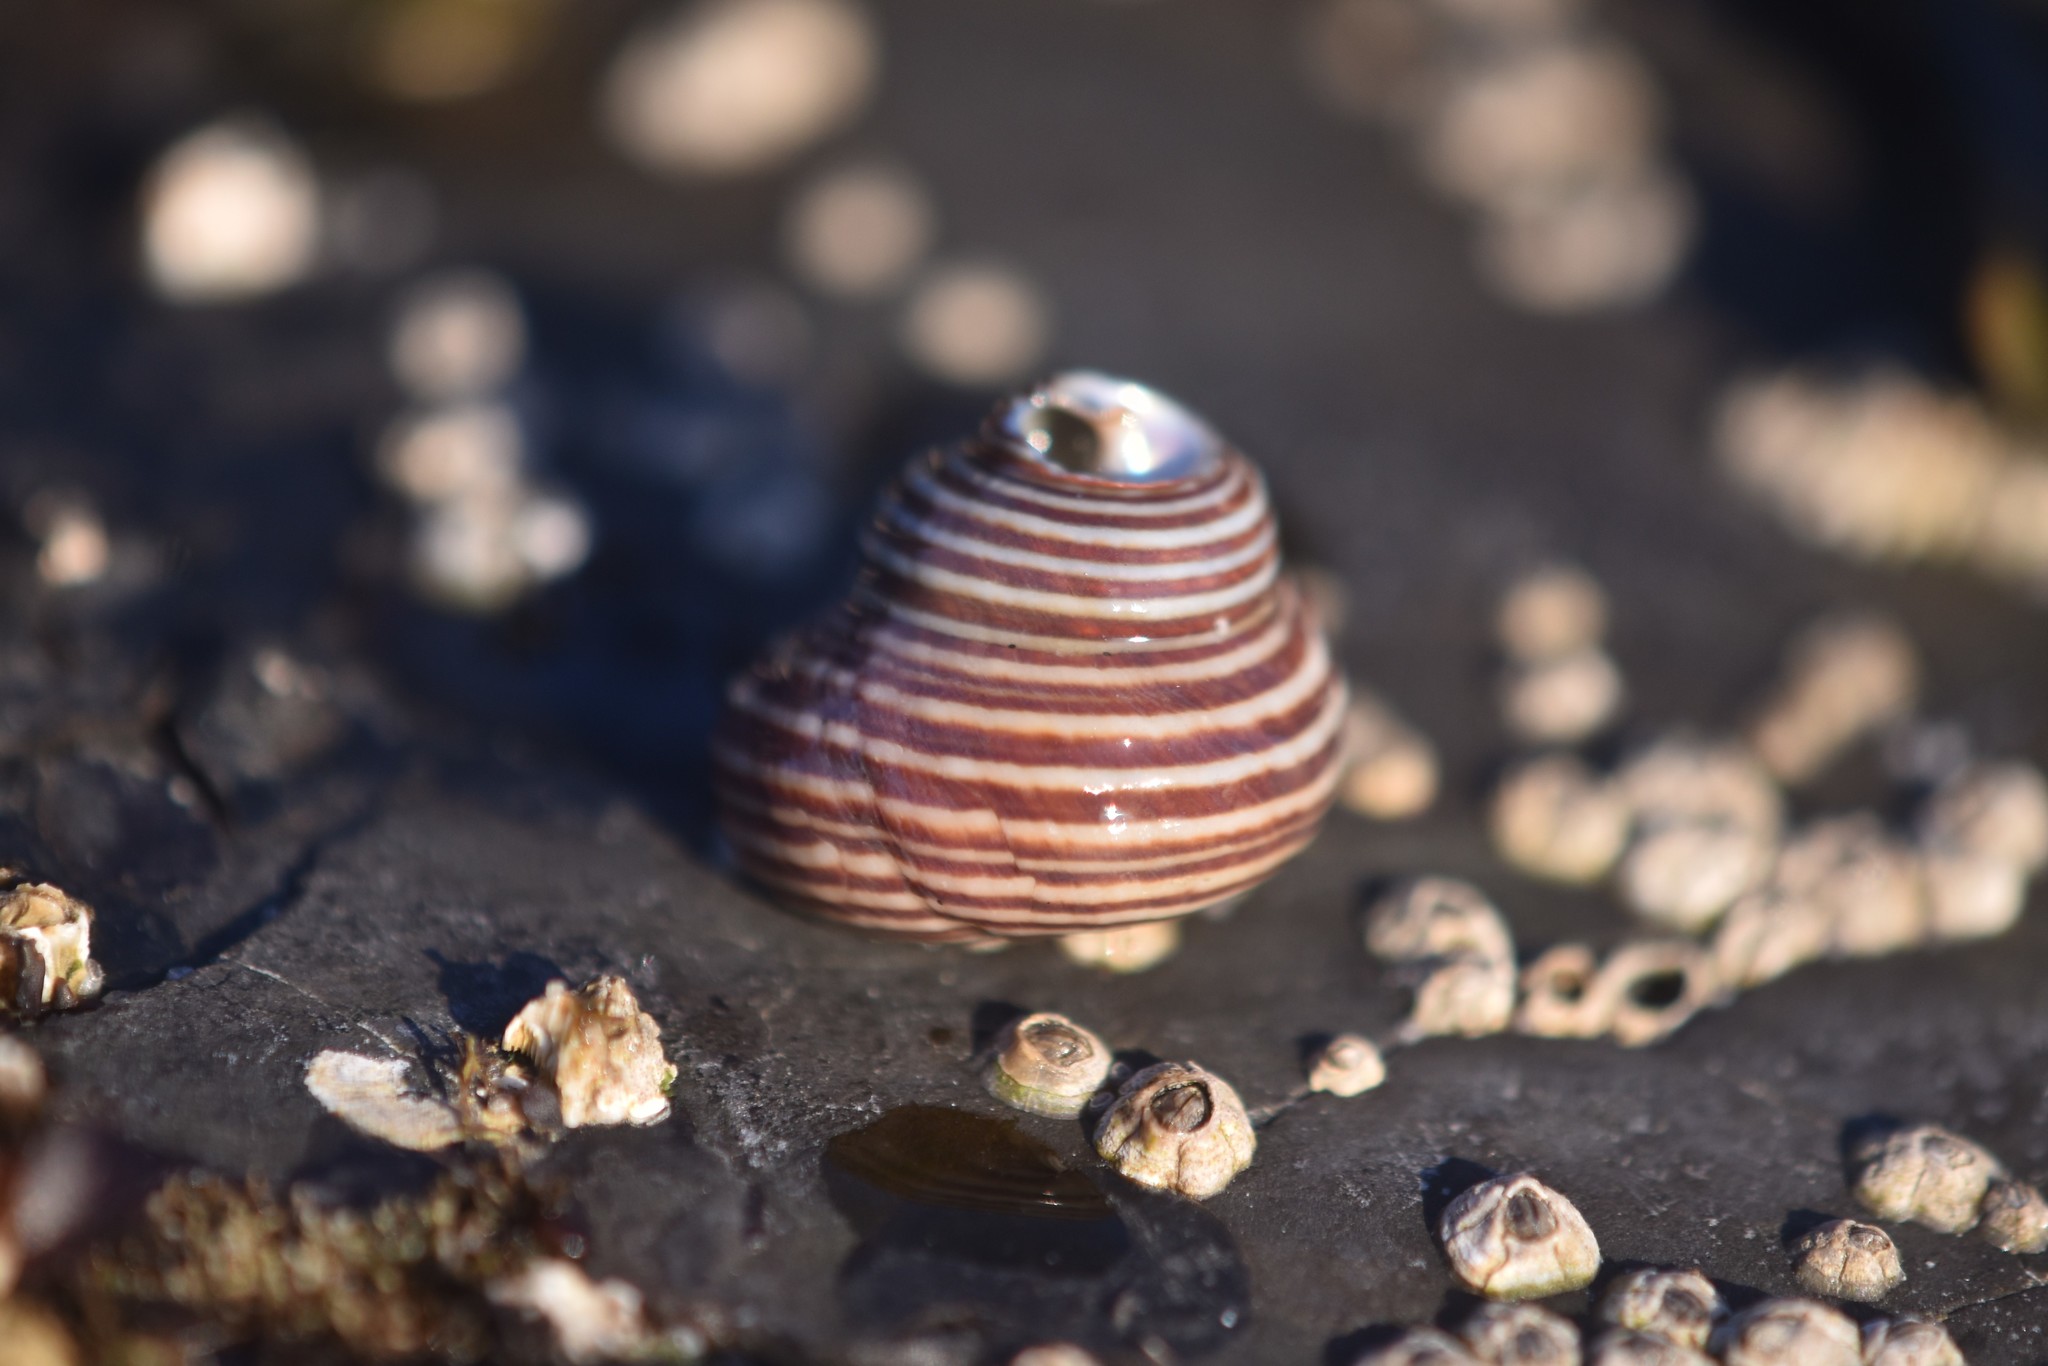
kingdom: Animalia
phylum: Mollusca
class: Gastropoda
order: Trochida
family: Calliostomatidae
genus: Calliostoma
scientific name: Calliostoma ligatum
